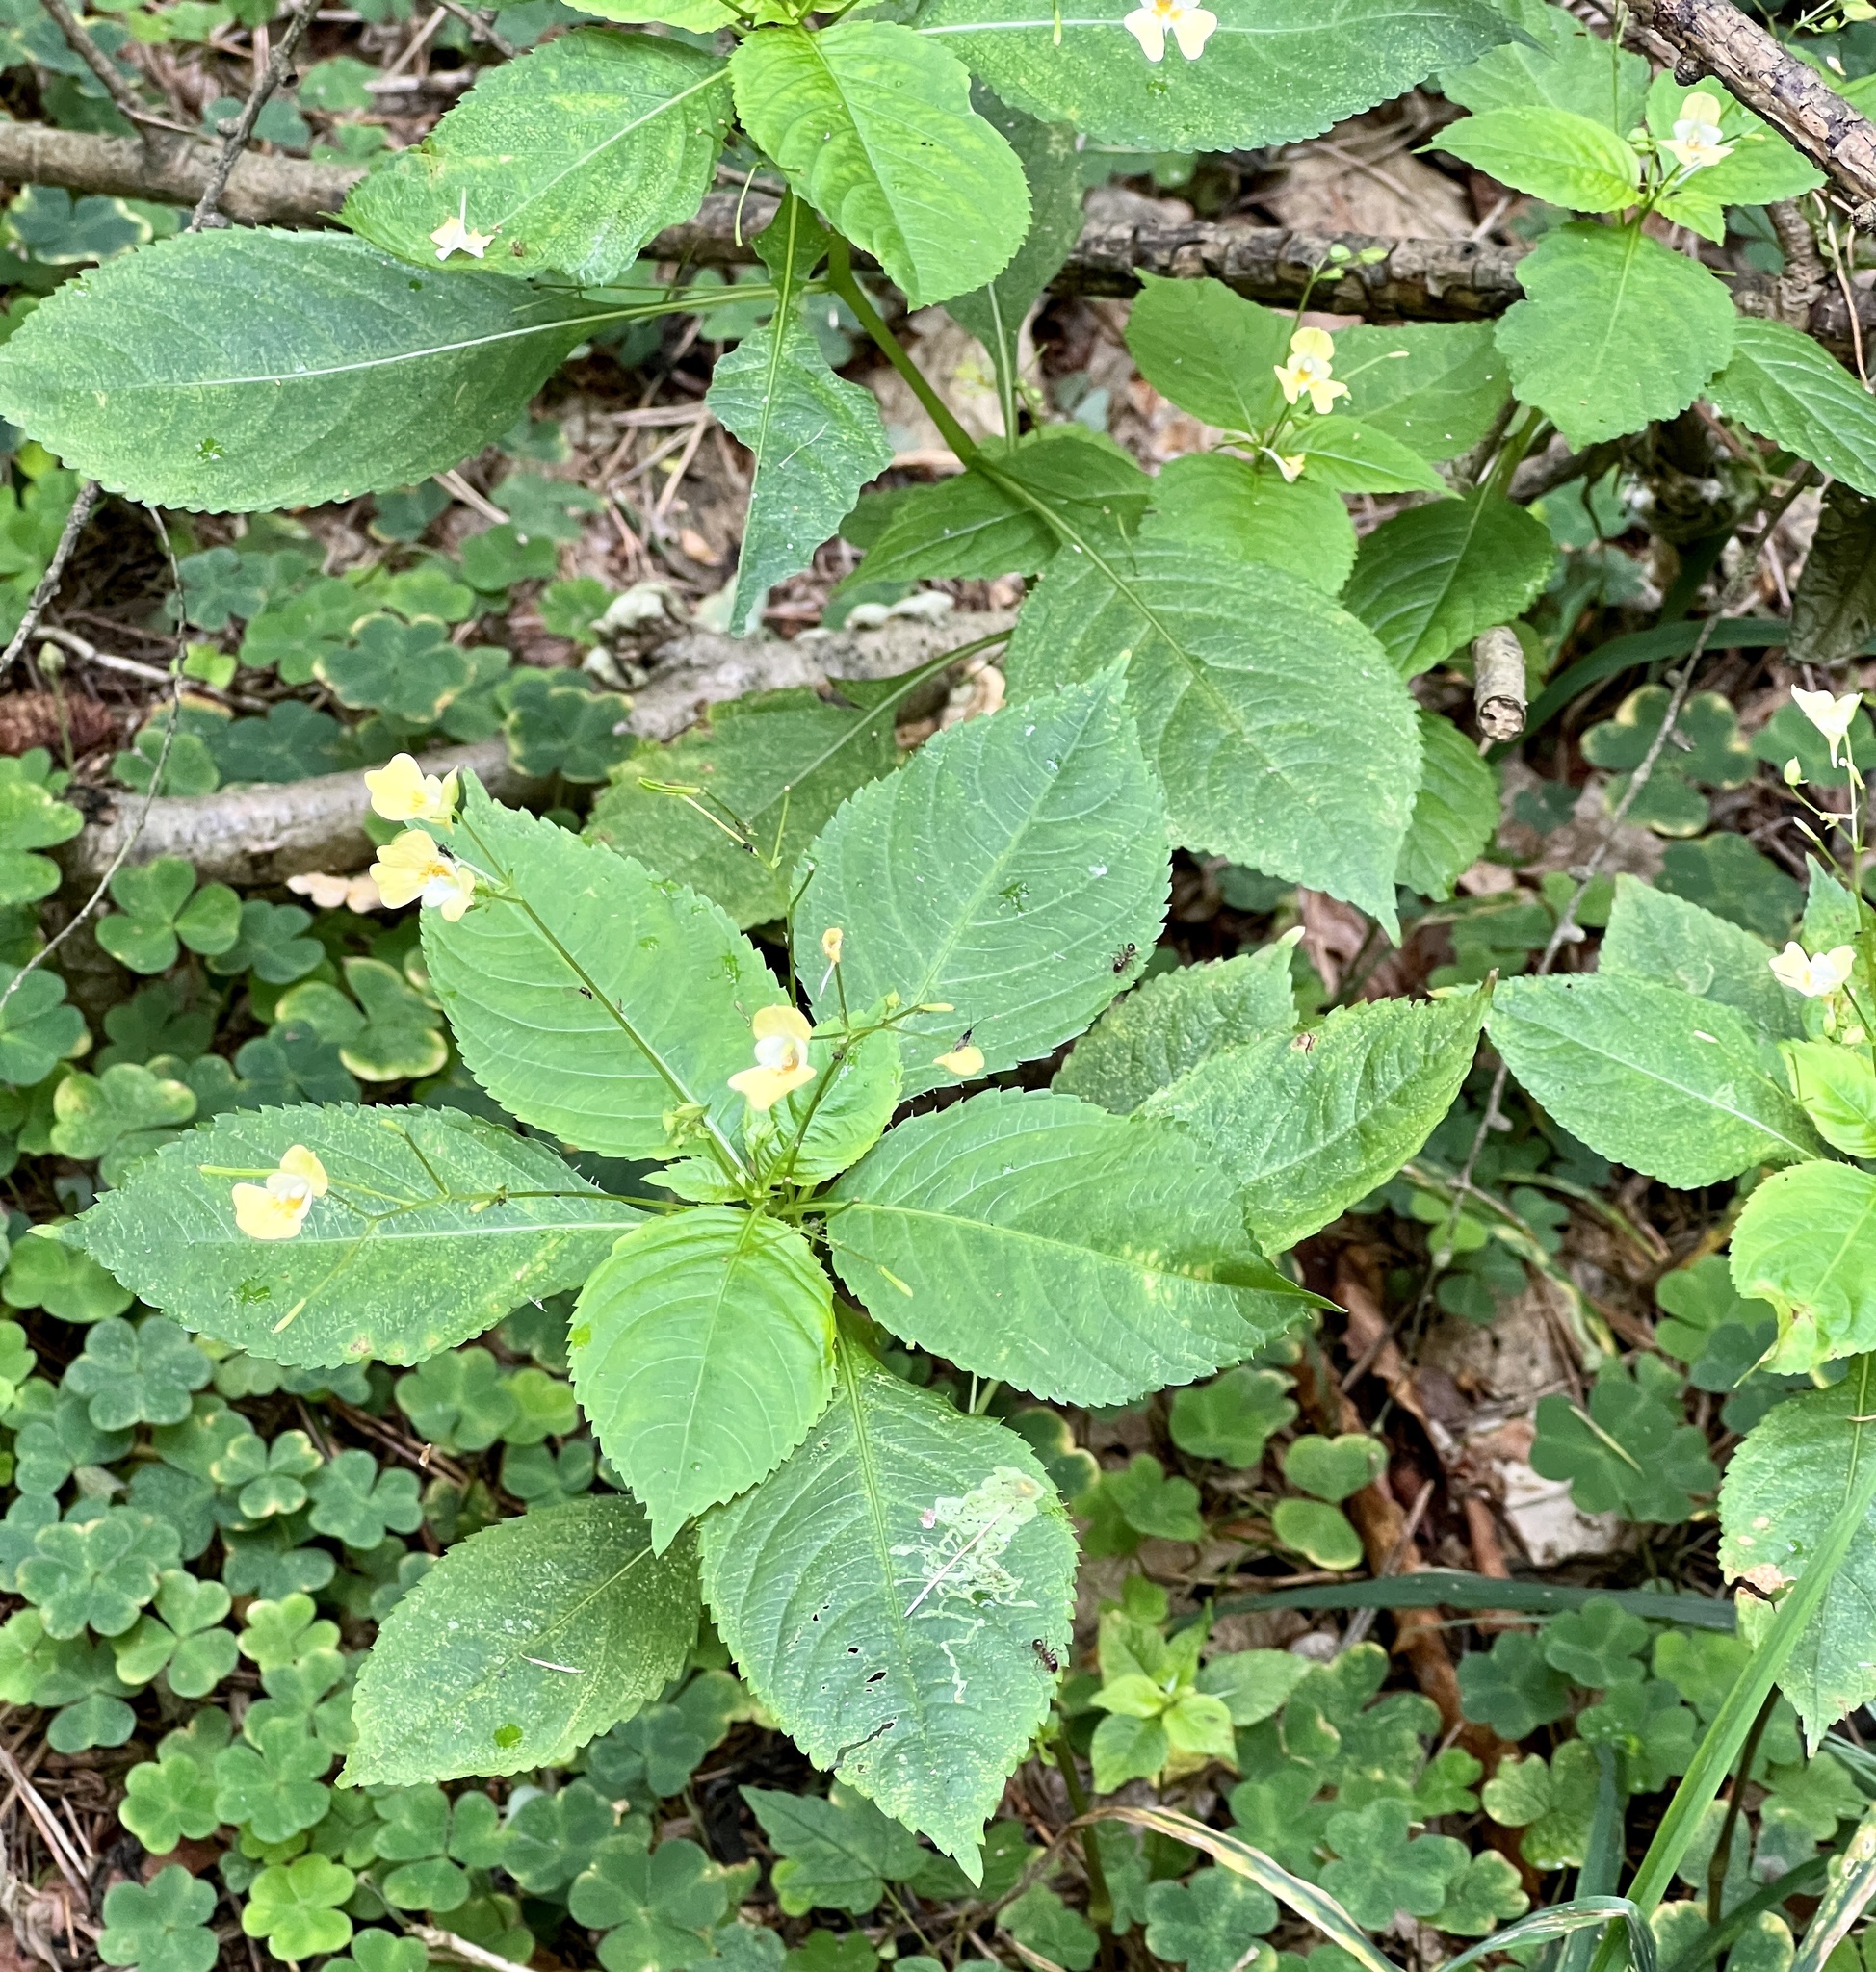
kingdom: Plantae
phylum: Tracheophyta
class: Magnoliopsida
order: Ericales
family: Balsaminaceae
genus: Impatiens
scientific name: Impatiens parviflora
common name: Small balsam
